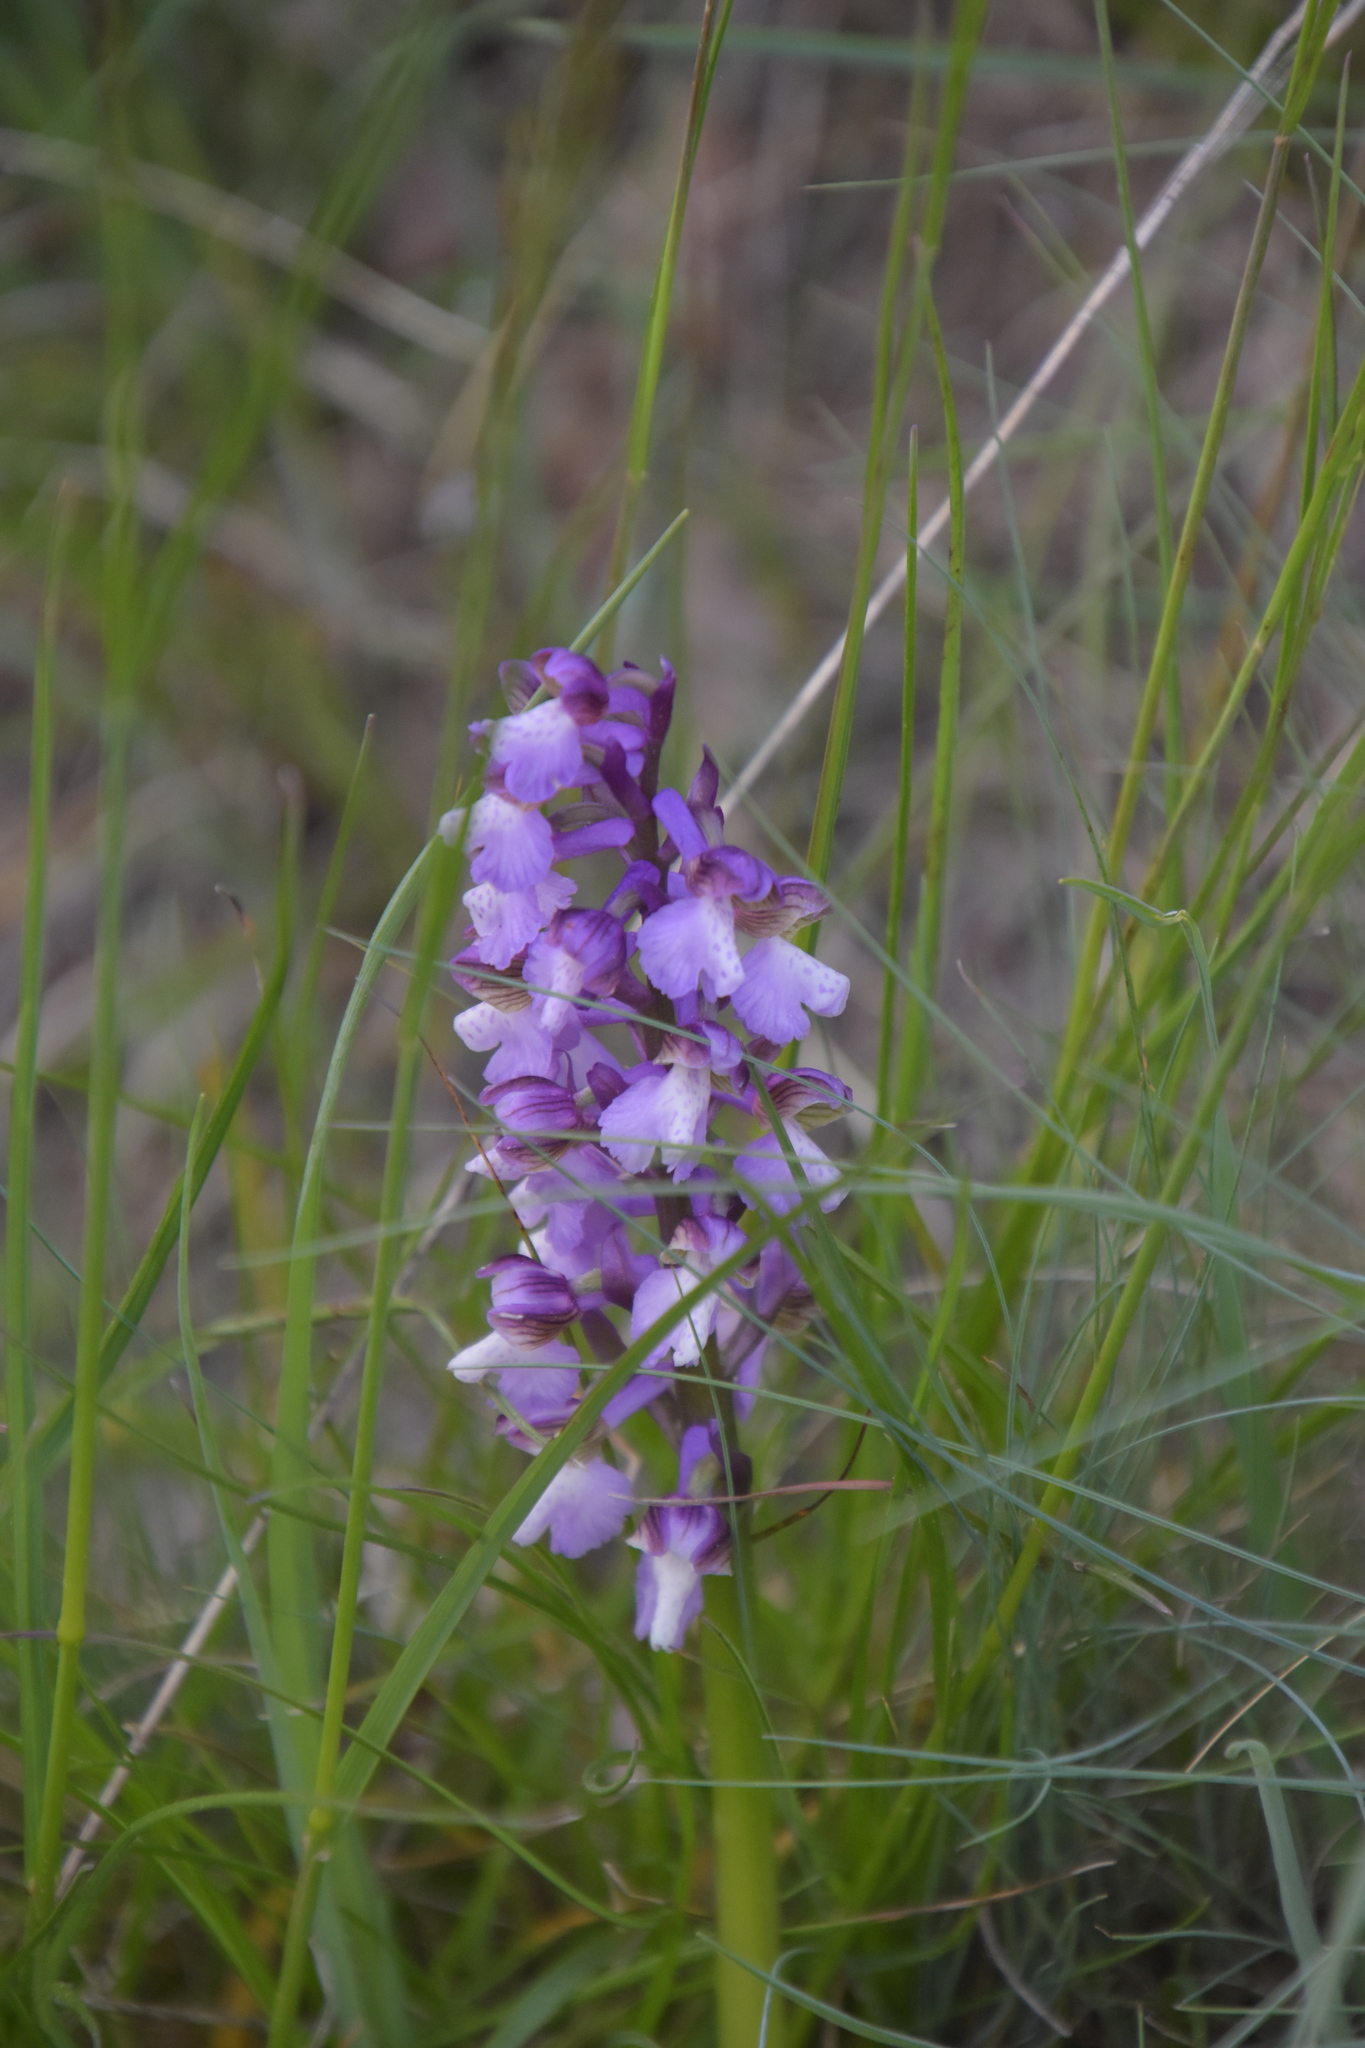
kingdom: Plantae
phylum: Tracheophyta
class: Liliopsida
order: Asparagales
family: Orchidaceae
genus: Anacamptis
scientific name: Anacamptis morio
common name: Green-winged orchid
